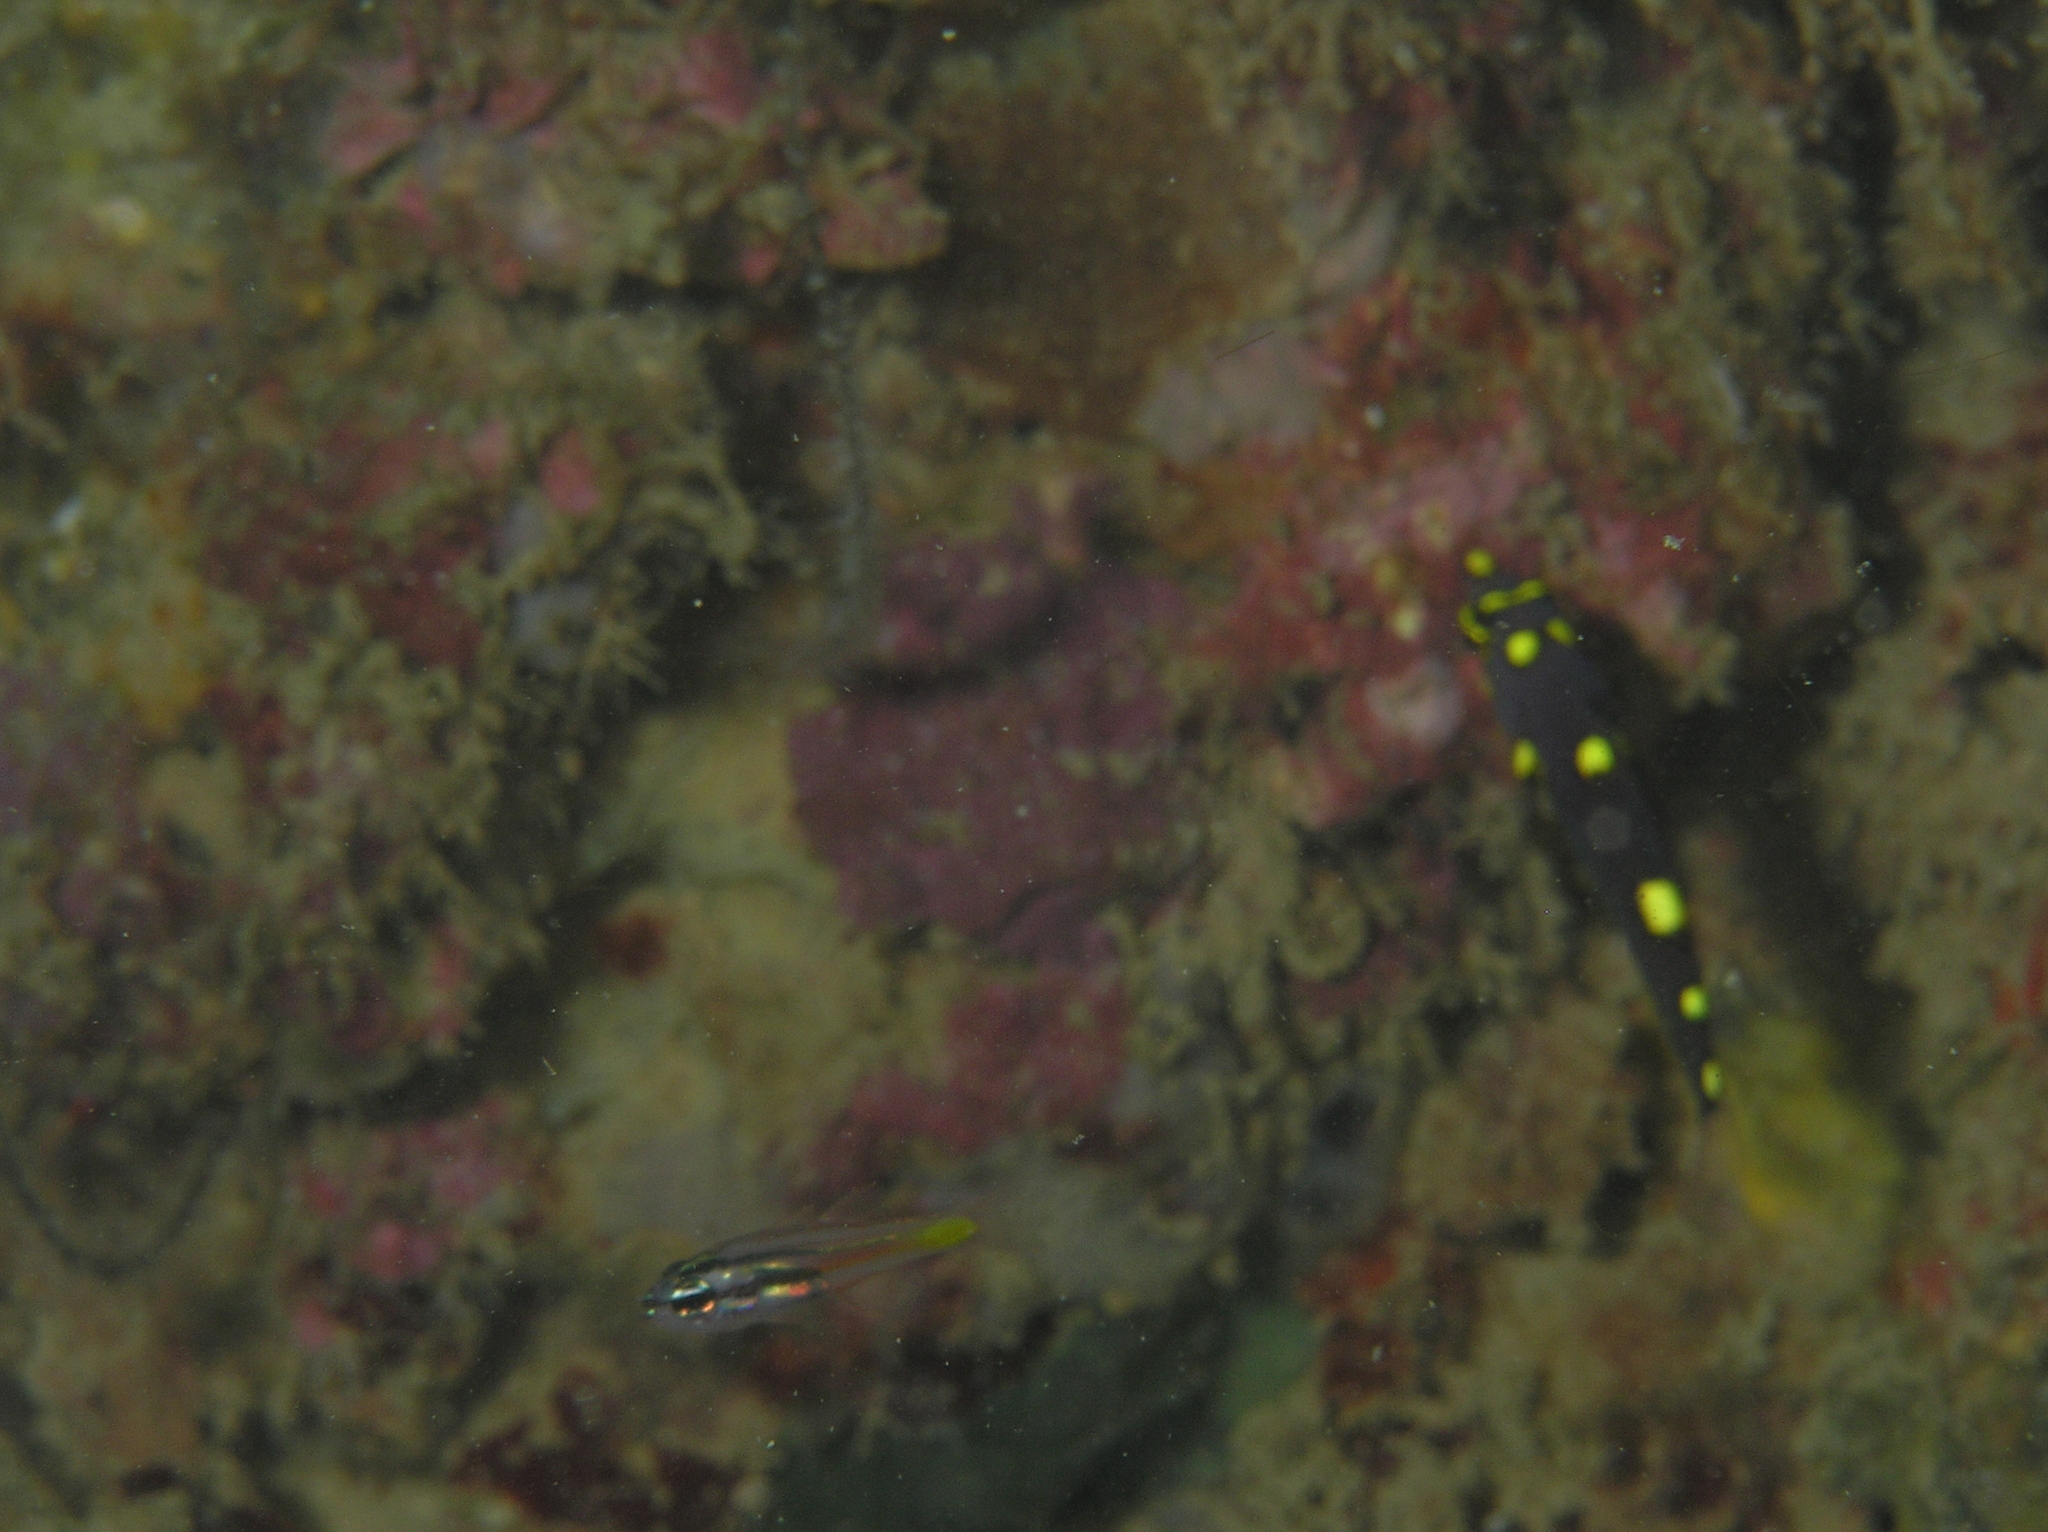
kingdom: Animalia
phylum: Chordata
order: Perciformes
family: Labridae
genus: Bodianus
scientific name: Bodianus mesothorax
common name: Coral hogfish
